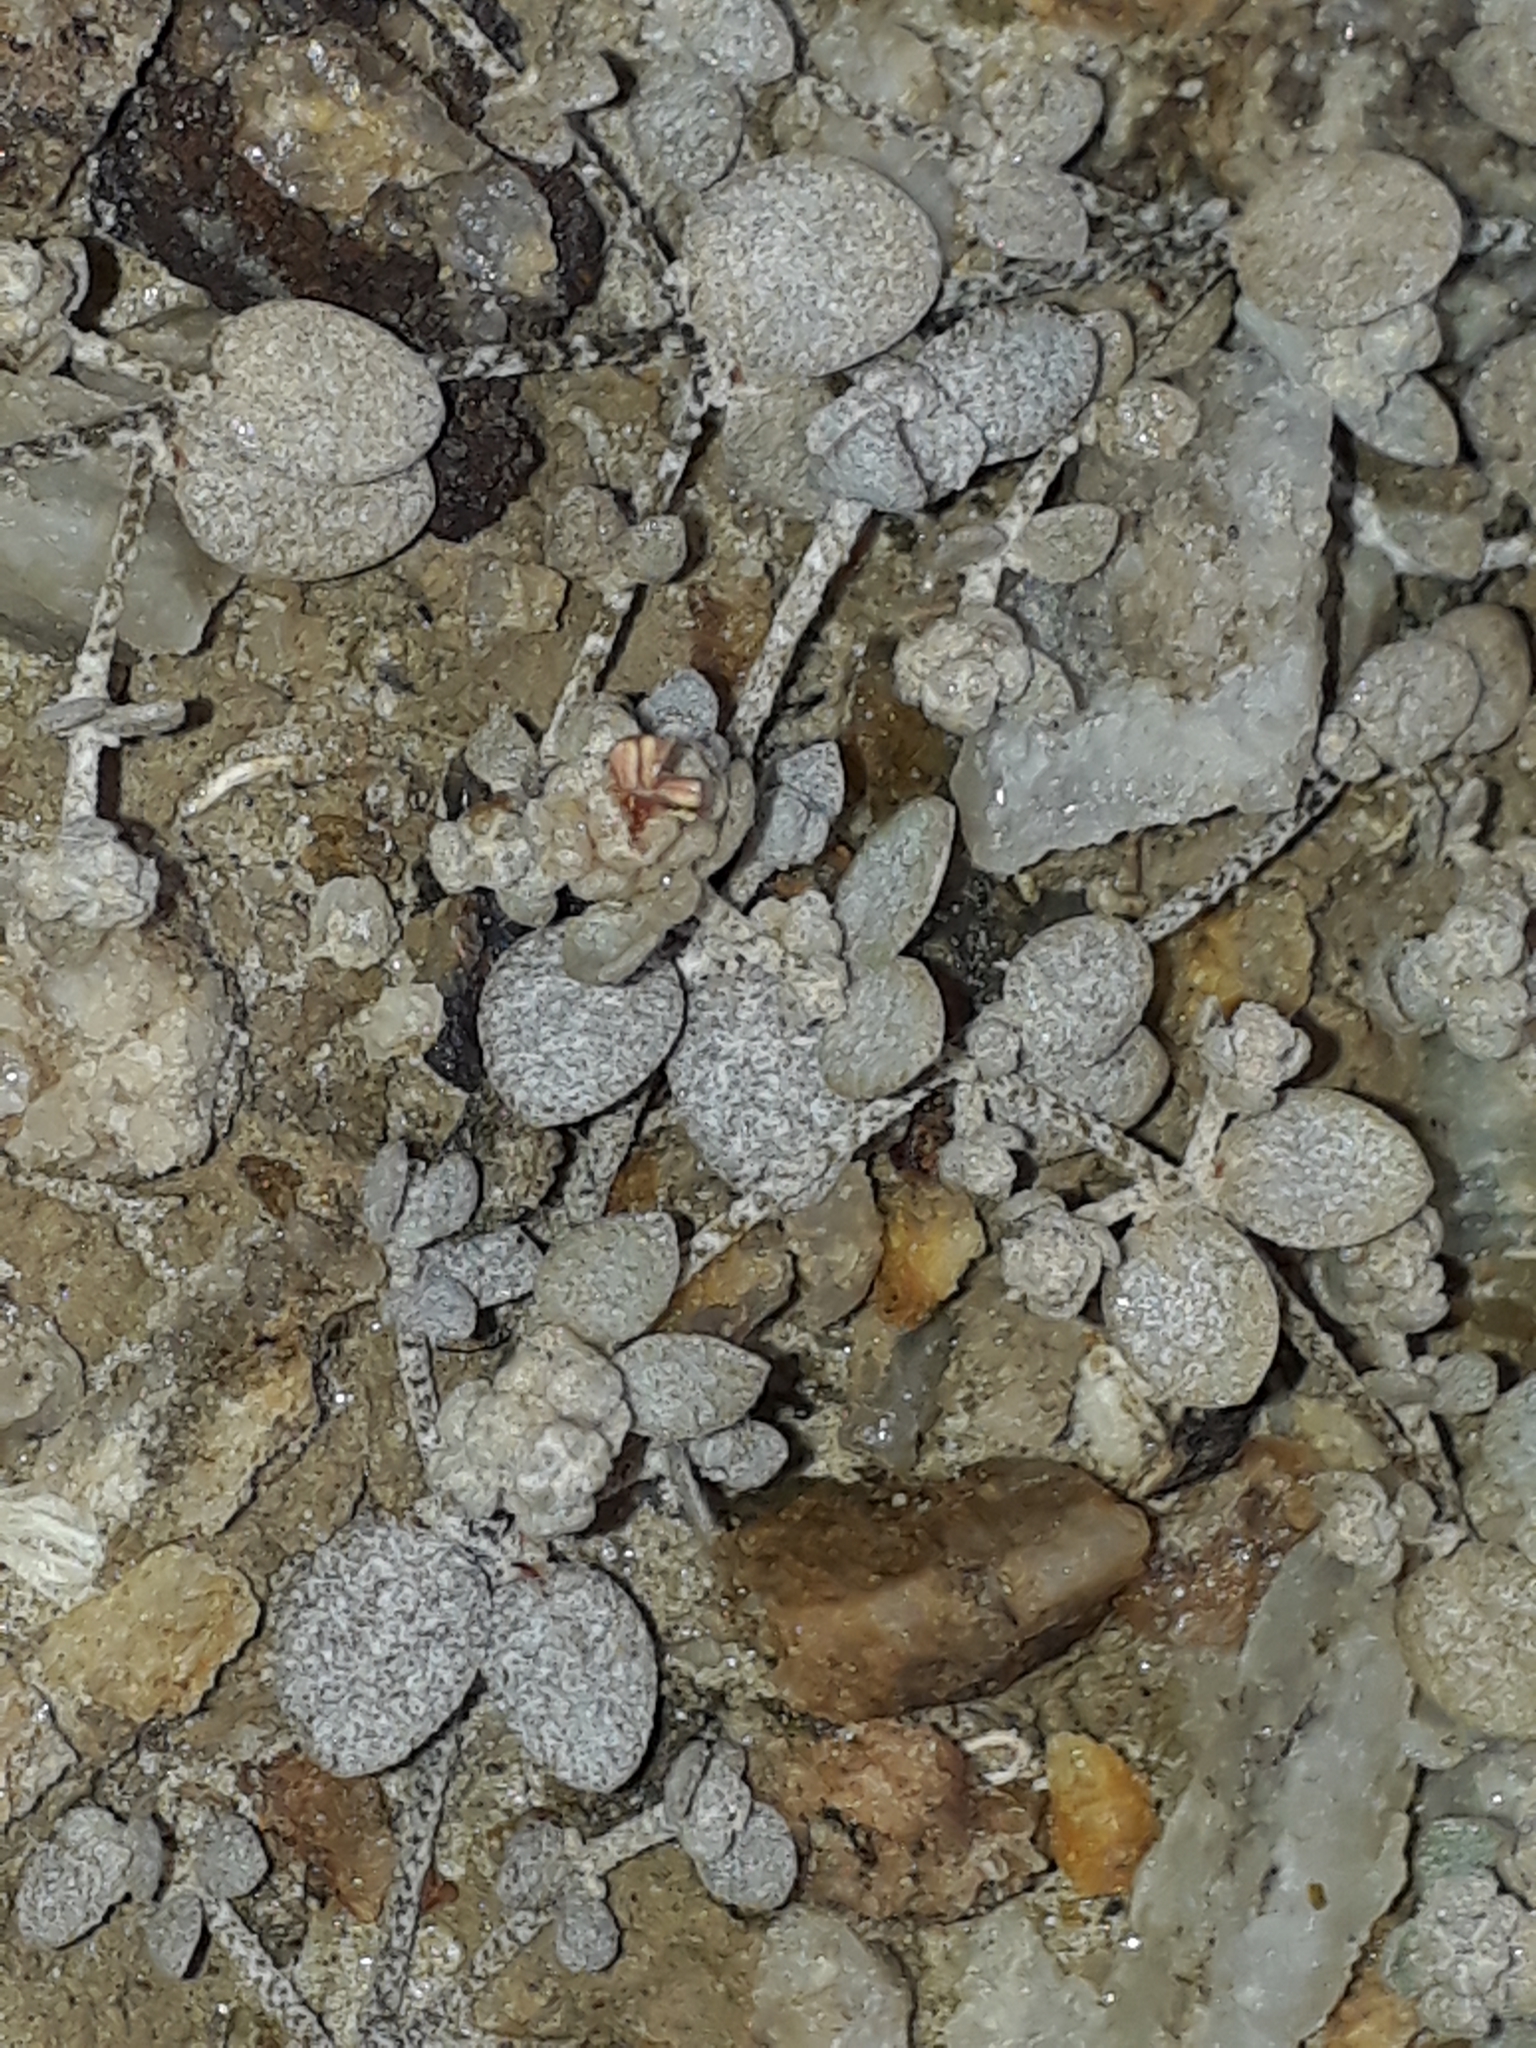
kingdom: Plantae
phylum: Tracheophyta
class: Magnoliopsida
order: Caryophyllales
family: Amaranthaceae
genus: Atriplex
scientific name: Atriplex buchananii
